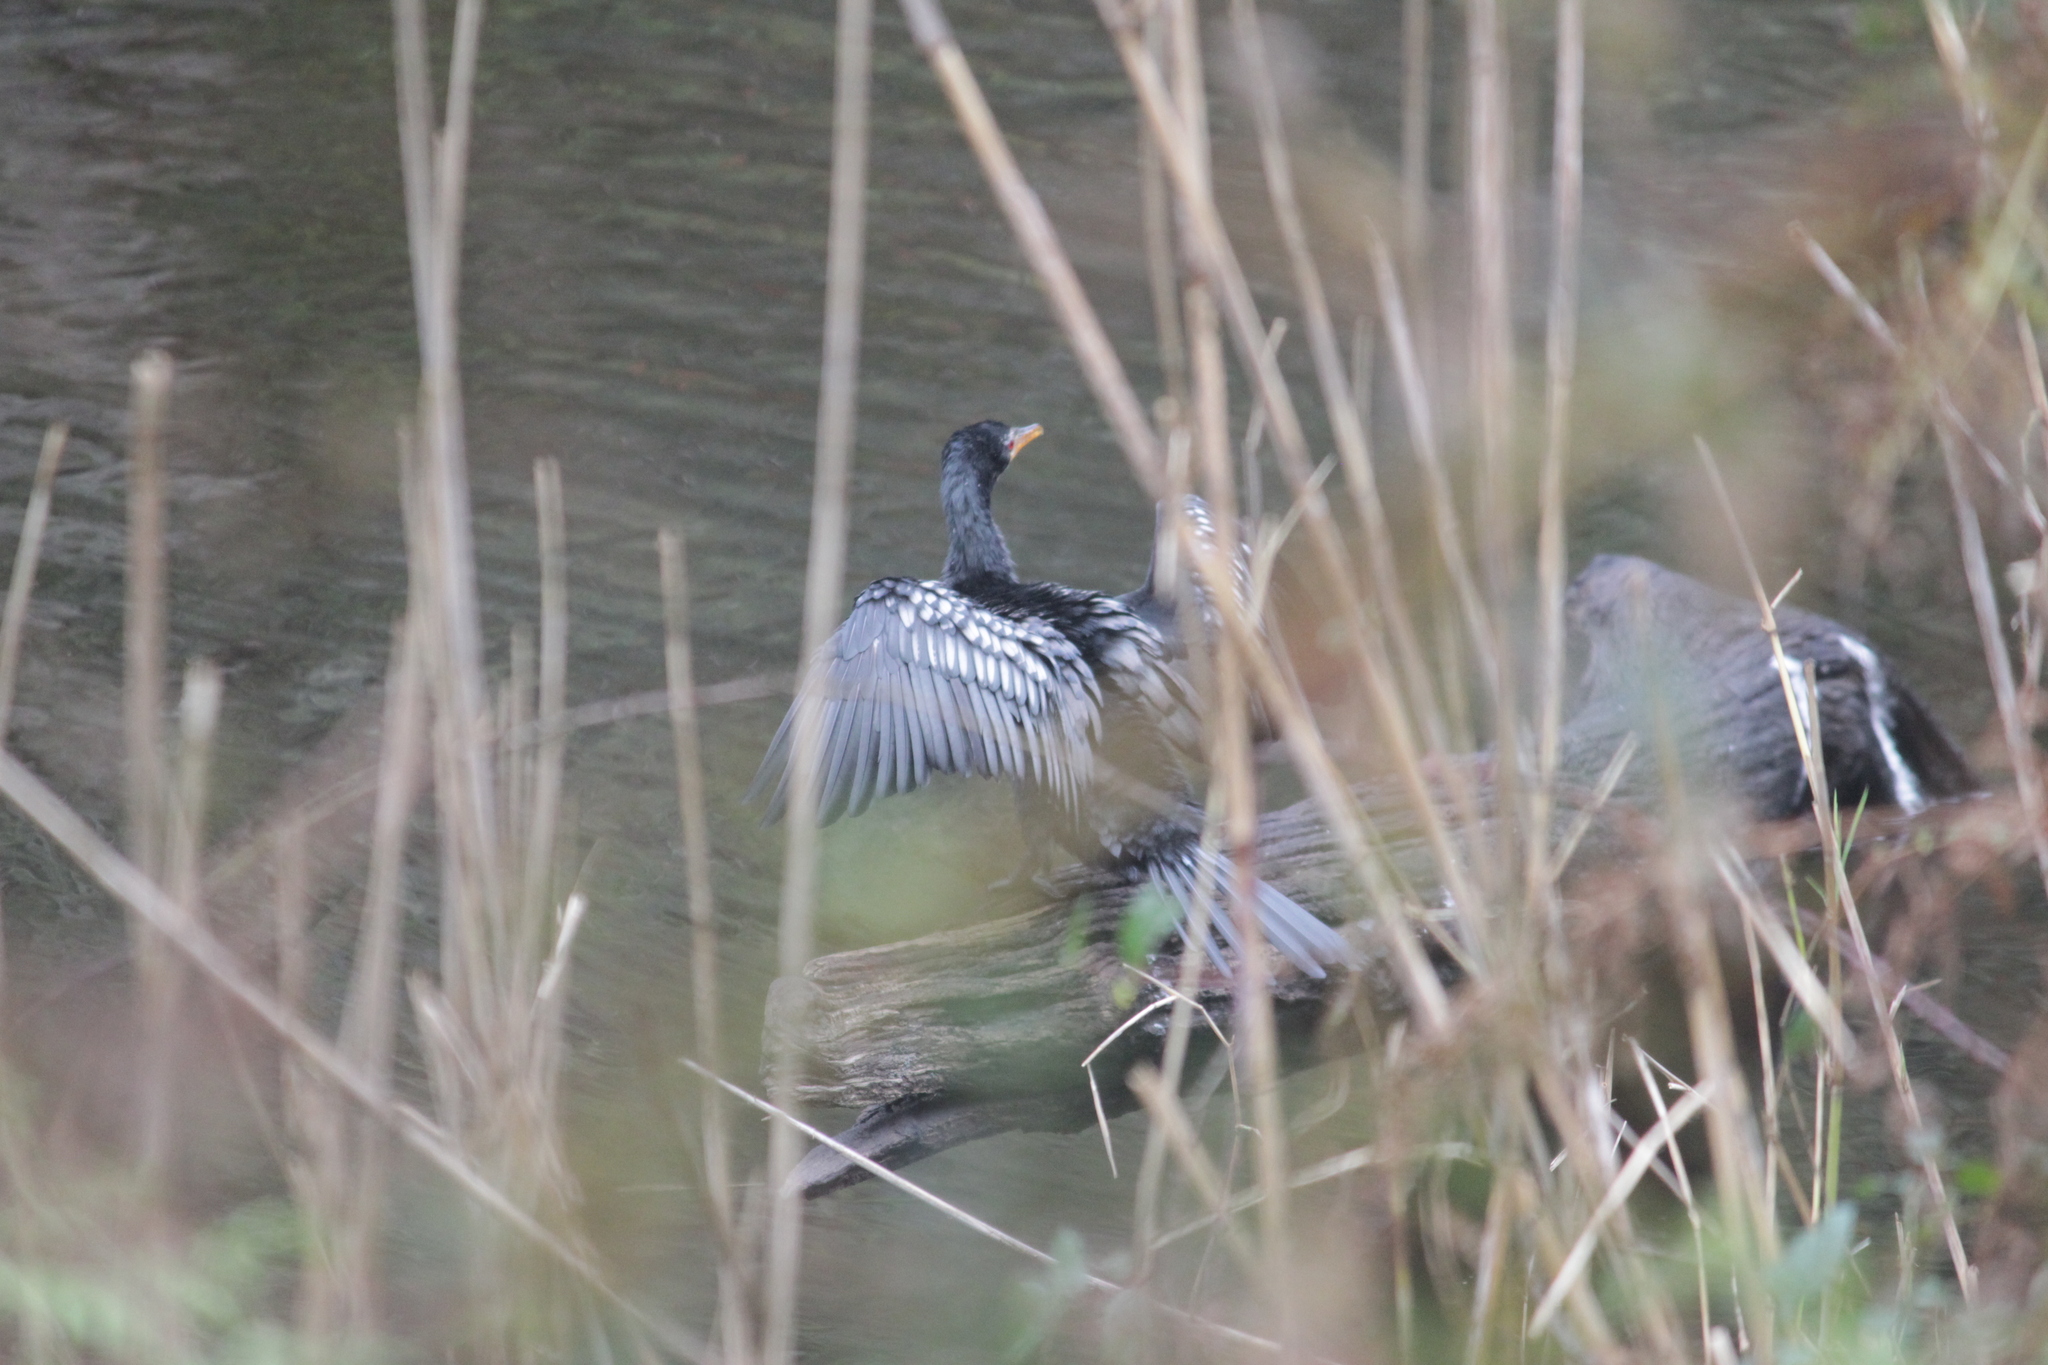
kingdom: Animalia
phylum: Chordata
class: Aves
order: Suliformes
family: Phalacrocoracidae
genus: Microcarbo
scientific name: Microcarbo africanus
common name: Long-tailed cormorant
